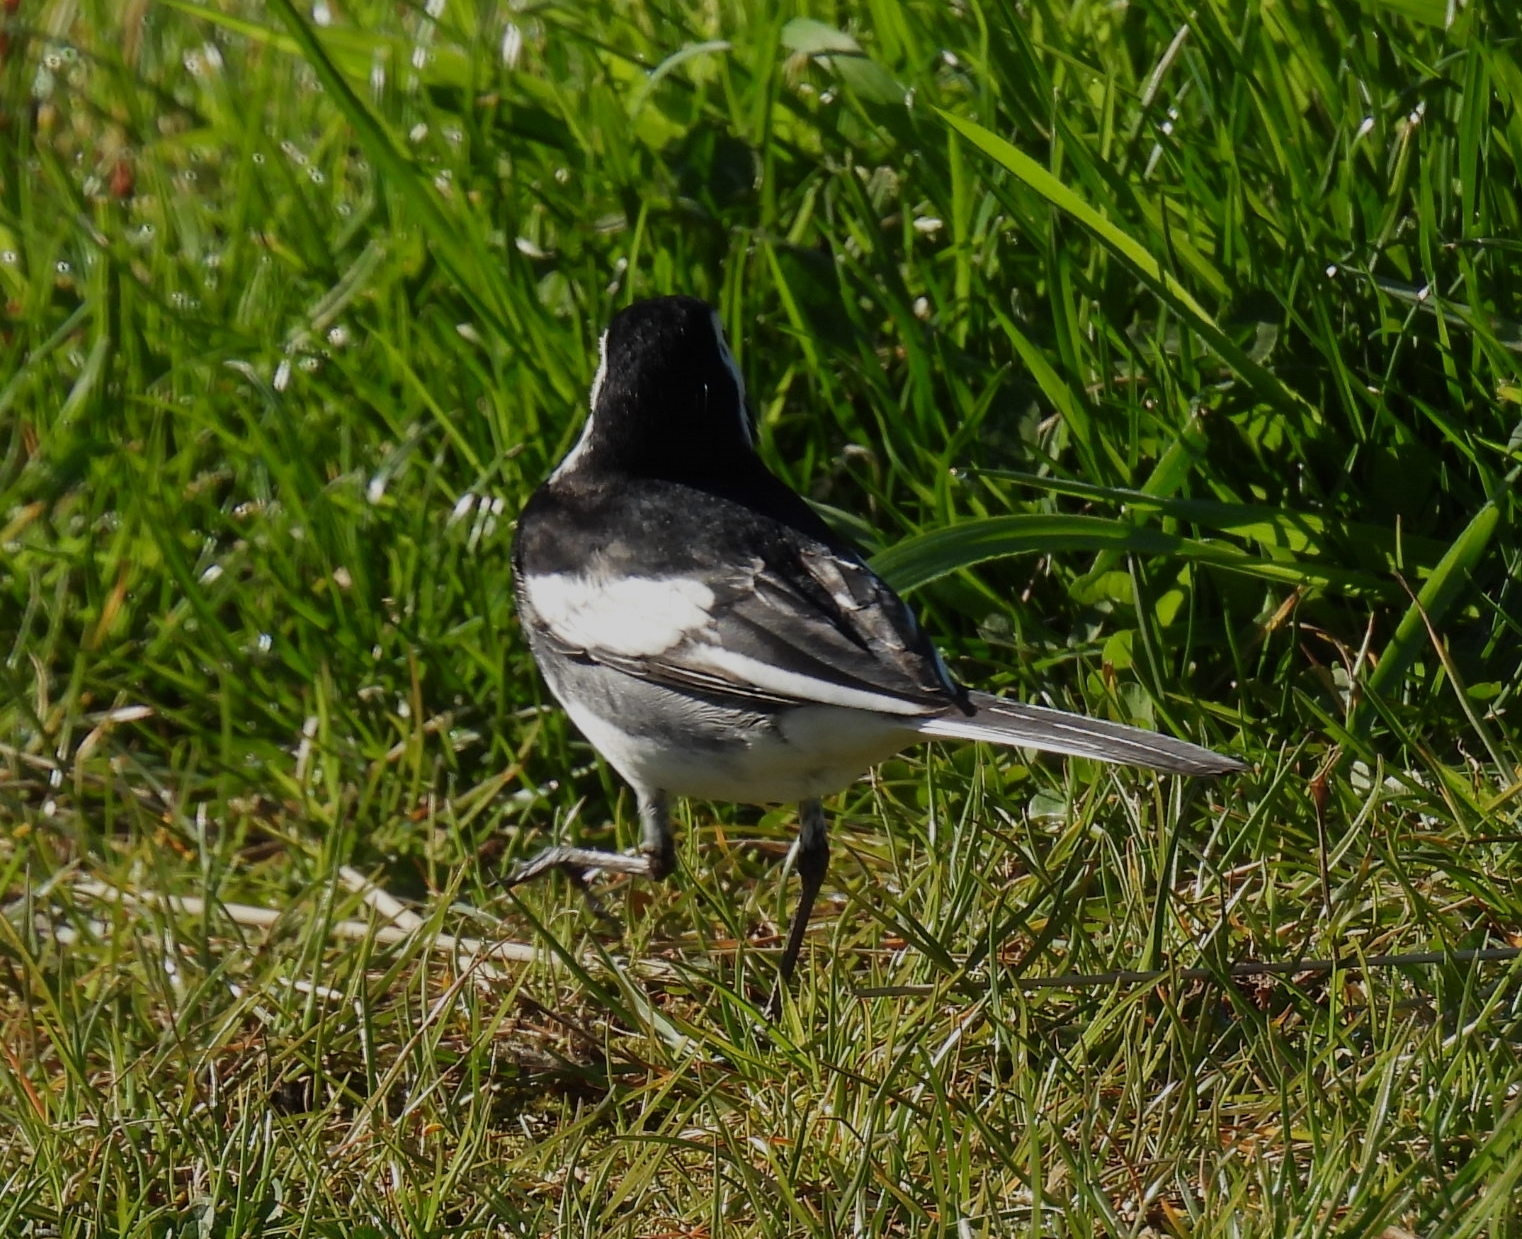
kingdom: Animalia
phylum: Chordata
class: Aves
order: Passeriformes
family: Motacillidae
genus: Motacilla
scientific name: Motacilla alba
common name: White wagtail
